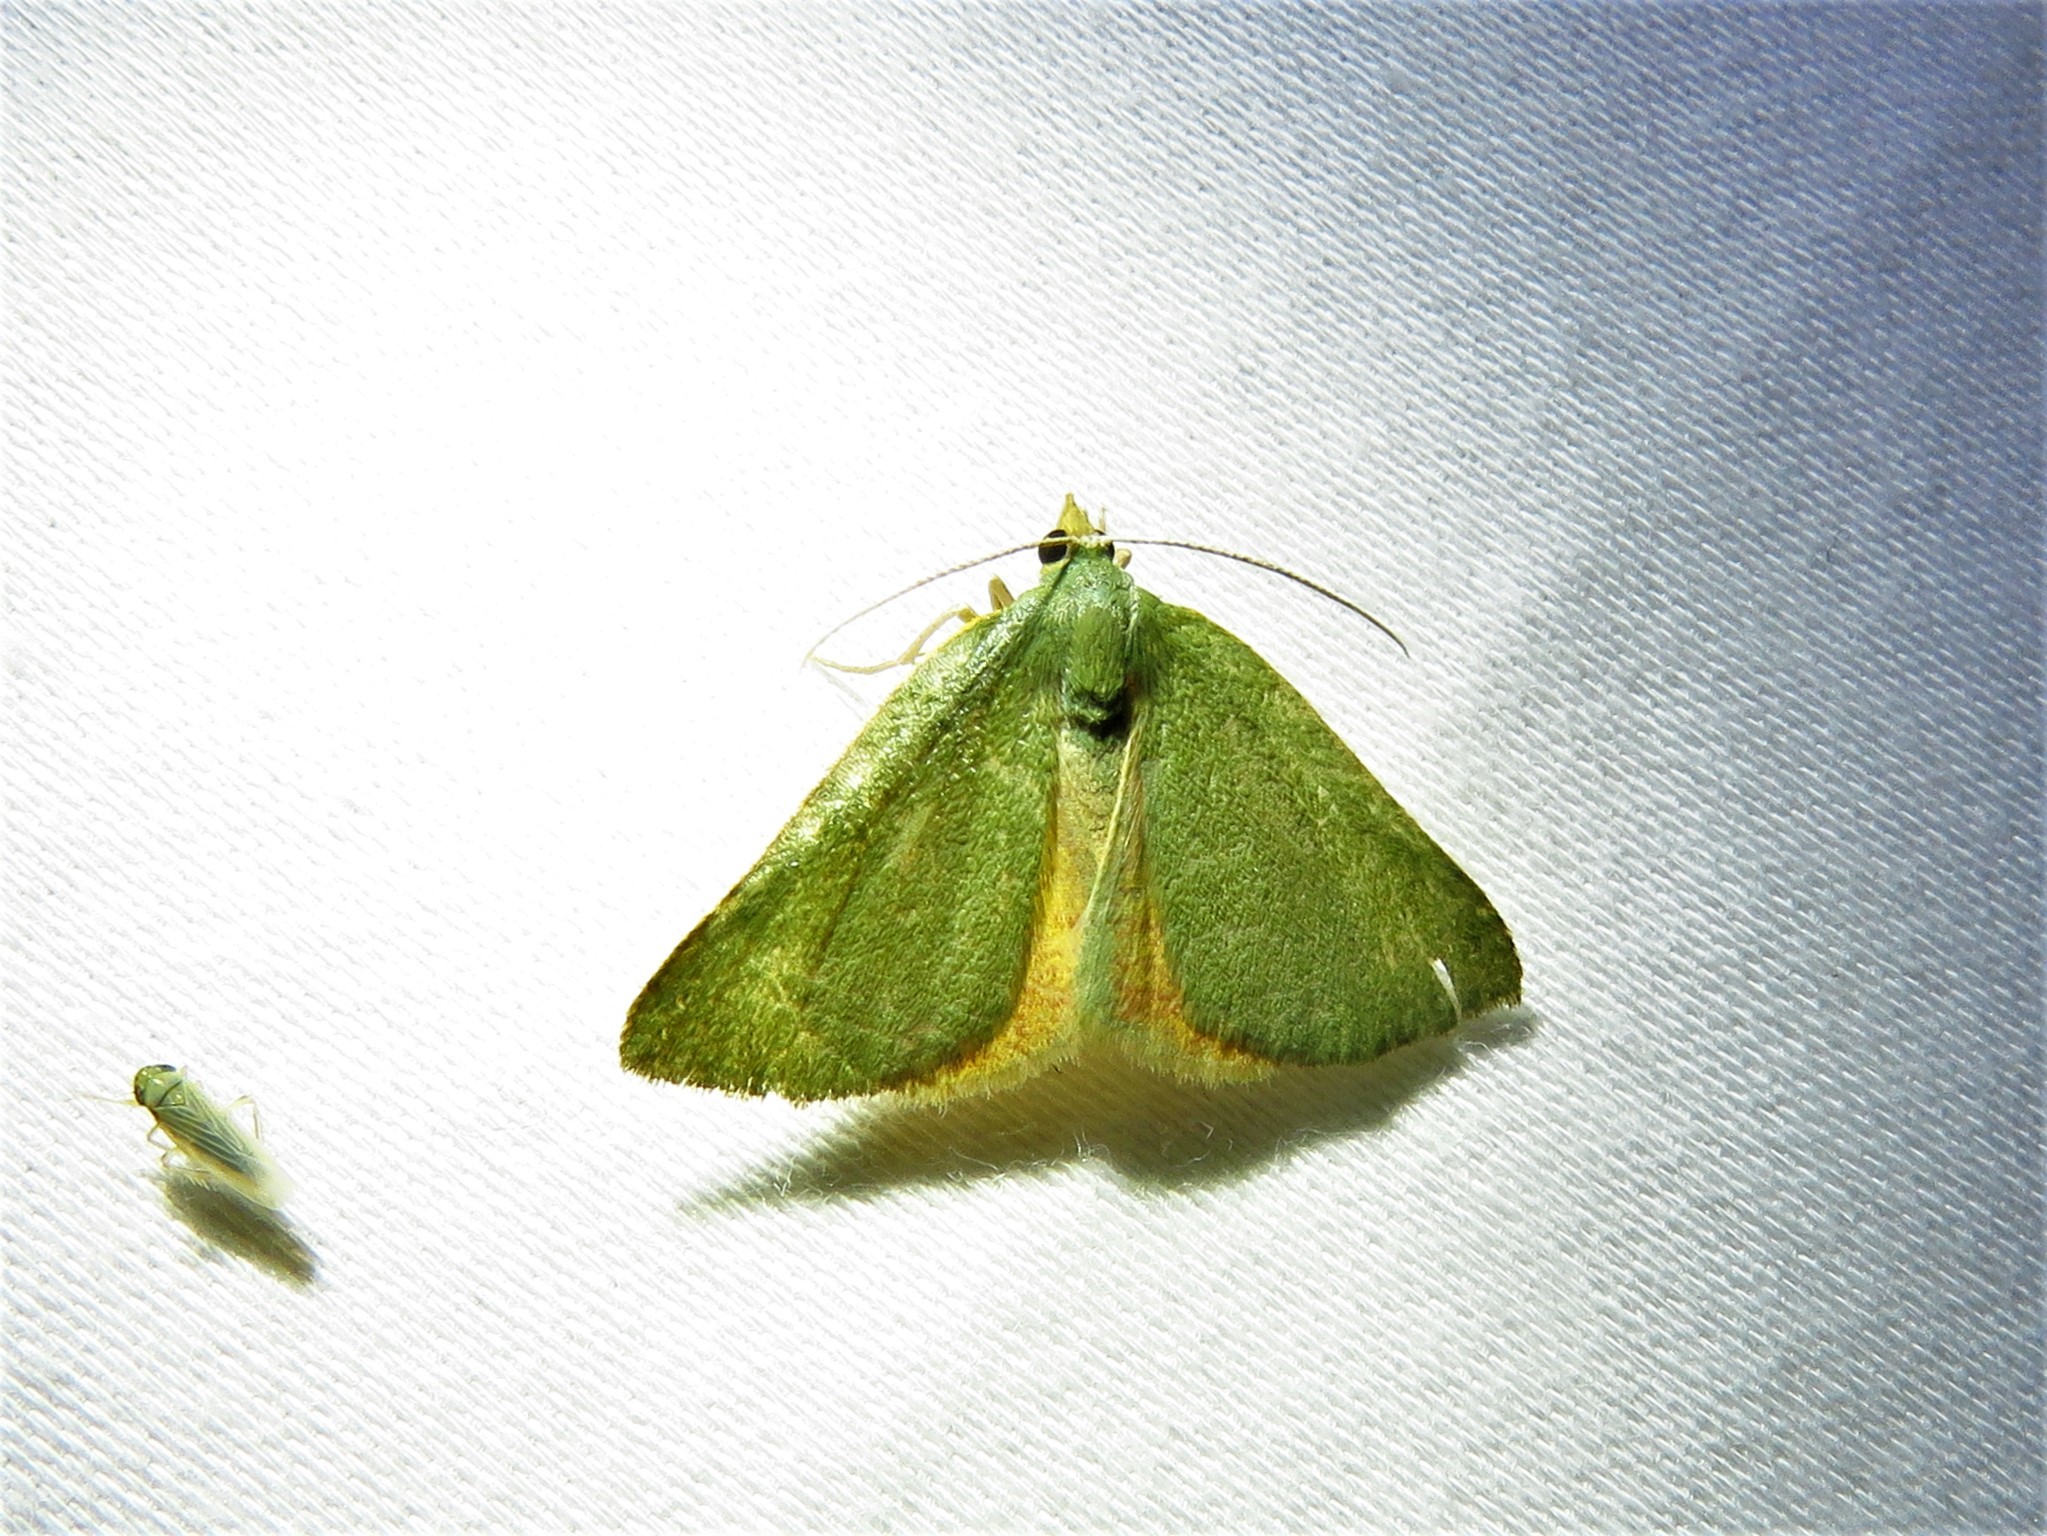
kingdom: Animalia
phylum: Arthropoda
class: Insecta
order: Lepidoptera
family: Geometridae
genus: Chloraspilates
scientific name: Chloraspilates bicoloraria
